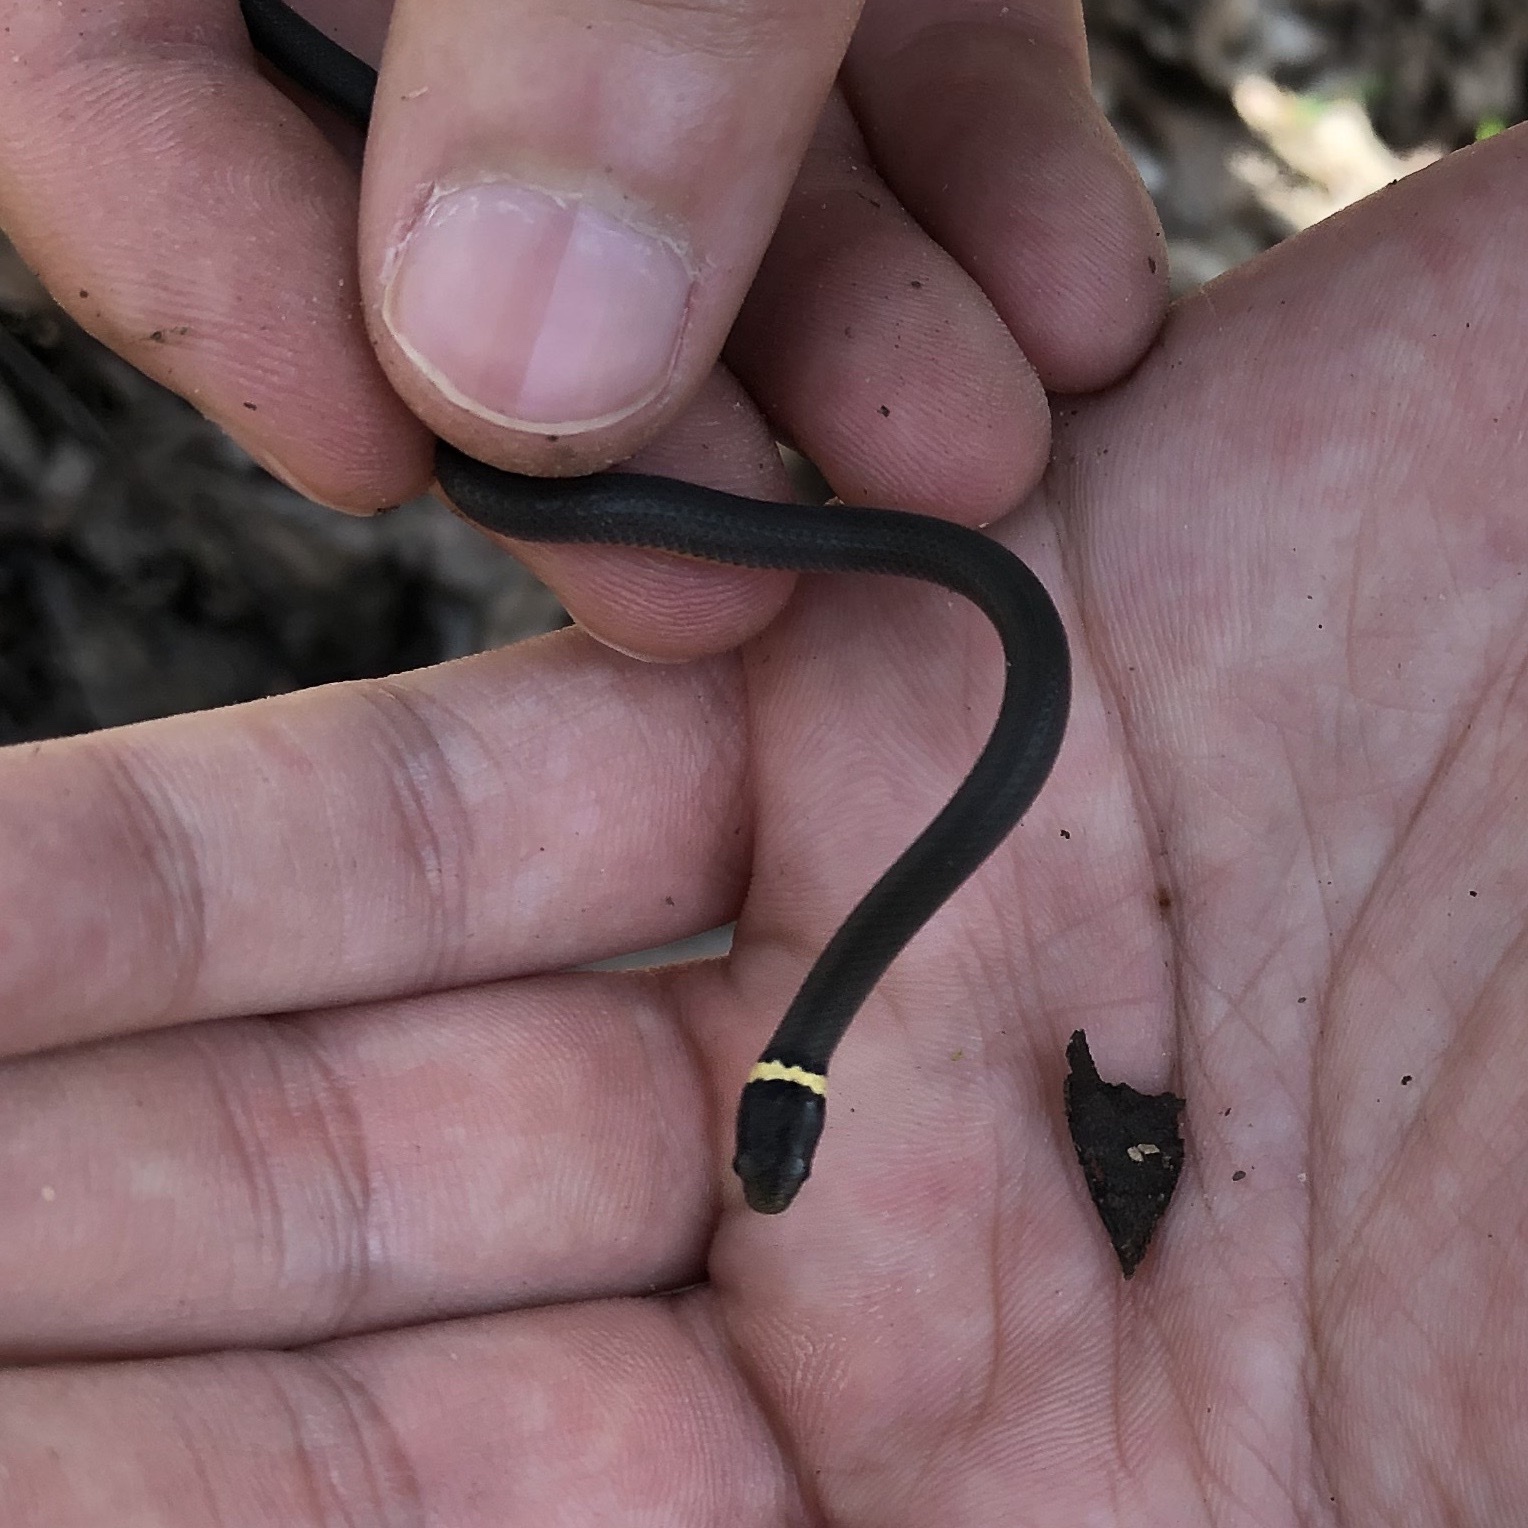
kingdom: Animalia
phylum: Chordata
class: Squamata
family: Colubridae
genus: Diadophis
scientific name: Diadophis punctatus
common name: Ringneck snake
